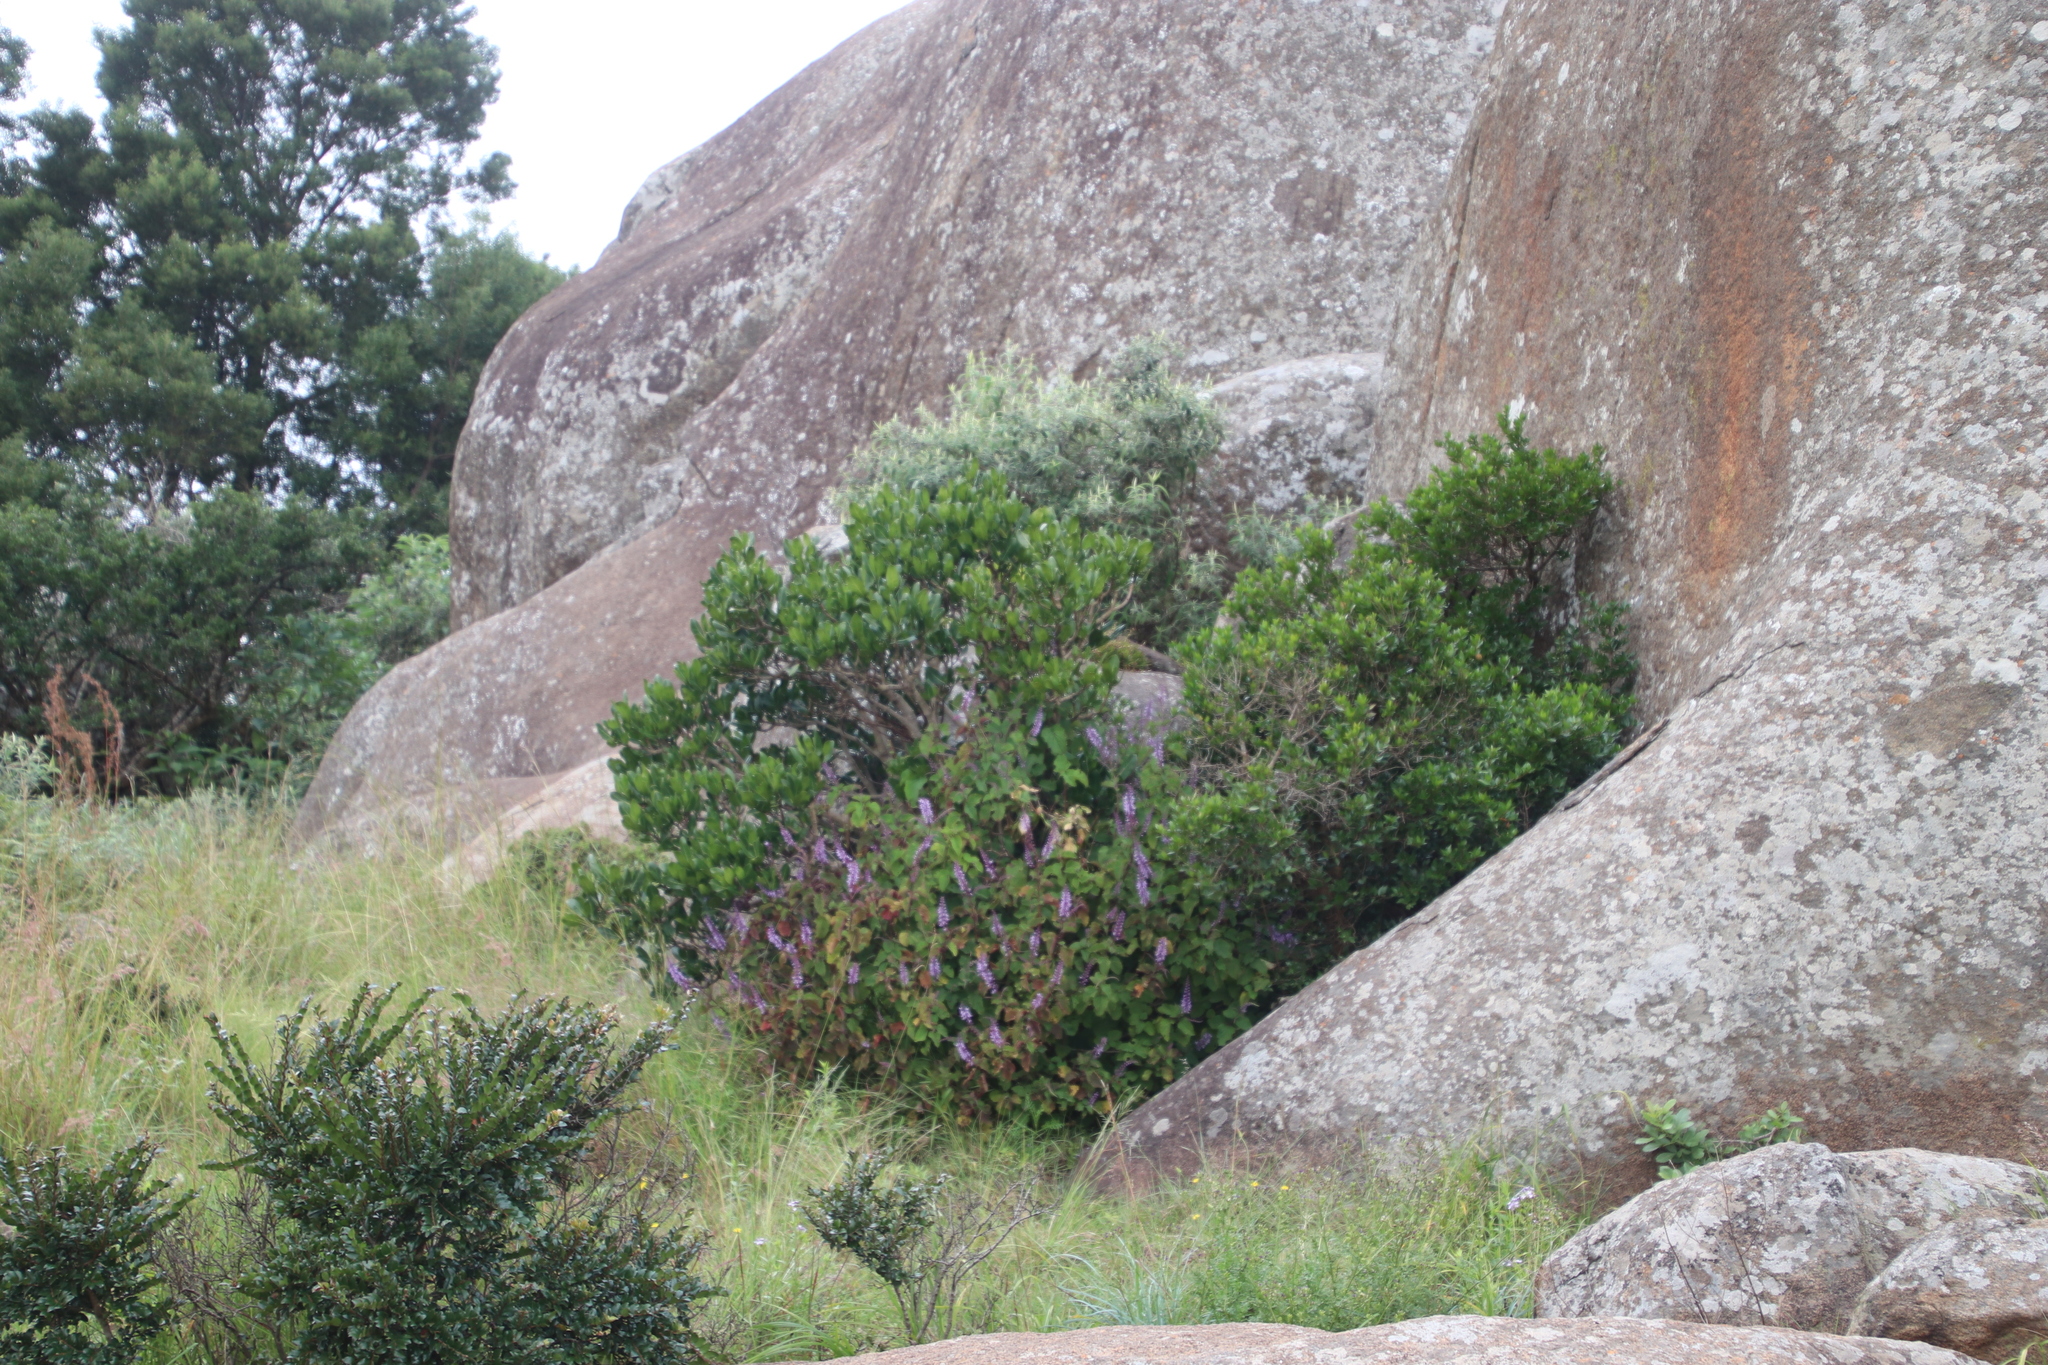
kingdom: Plantae
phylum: Tracheophyta
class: Magnoliopsida
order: Lamiales
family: Lamiaceae
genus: Plectranthus
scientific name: Plectranthus fruticosus
